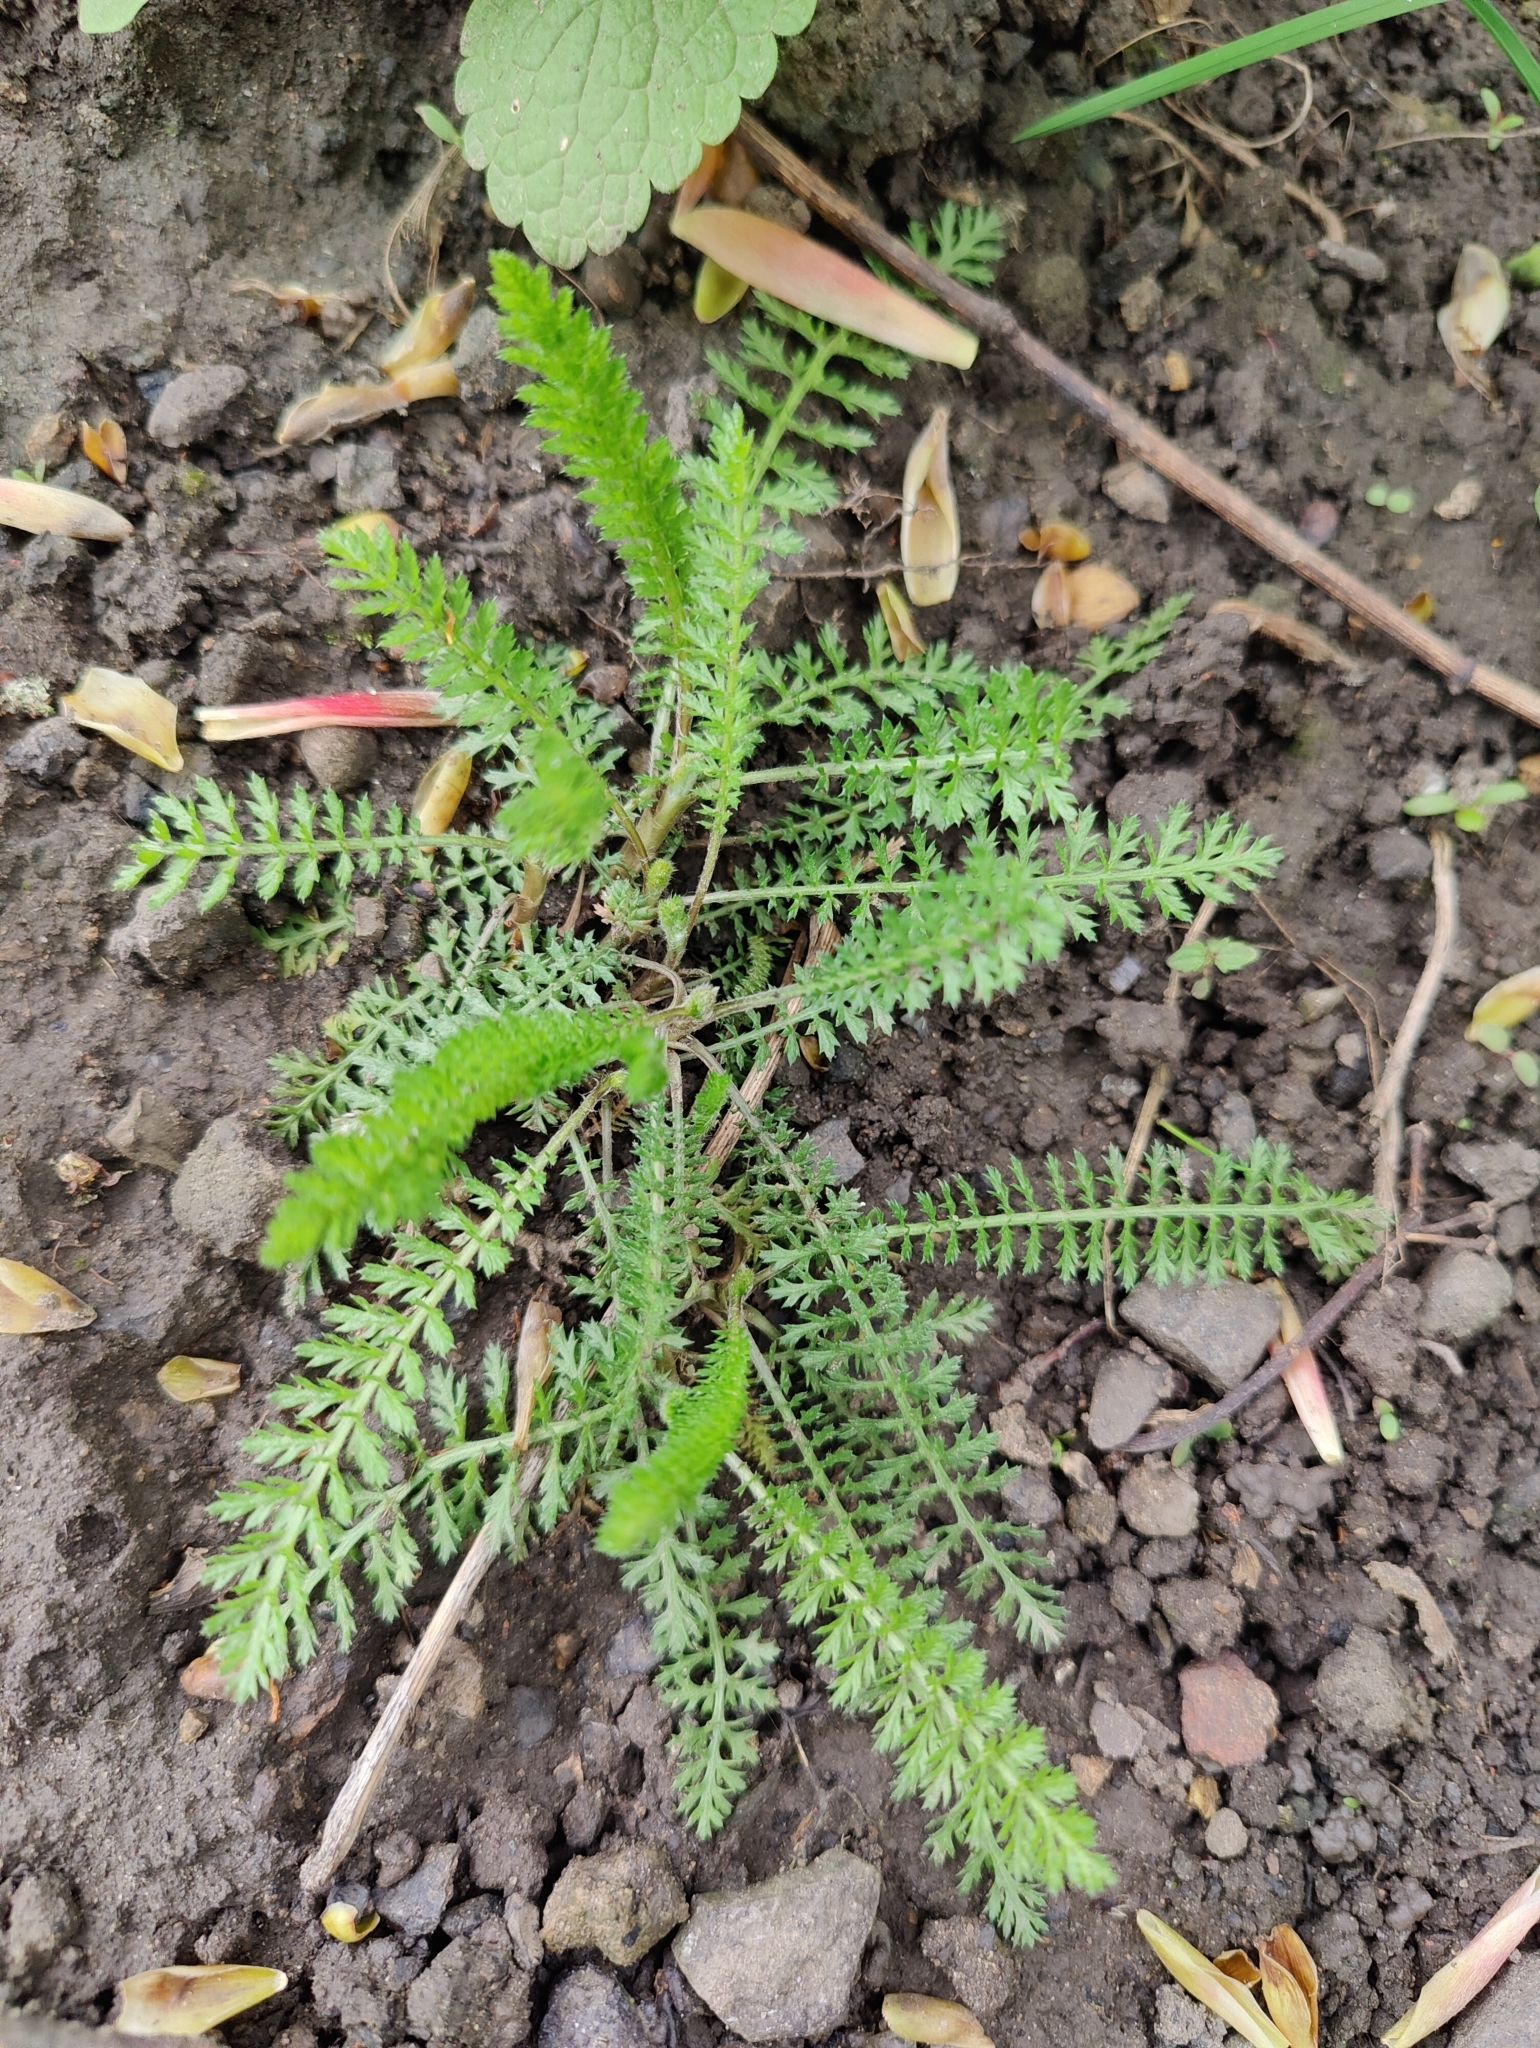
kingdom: Plantae
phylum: Tracheophyta
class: Magnoliopsida
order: Asterales
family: Asteraceae
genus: Achillea
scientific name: Achillea millefolium
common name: Yarrow
